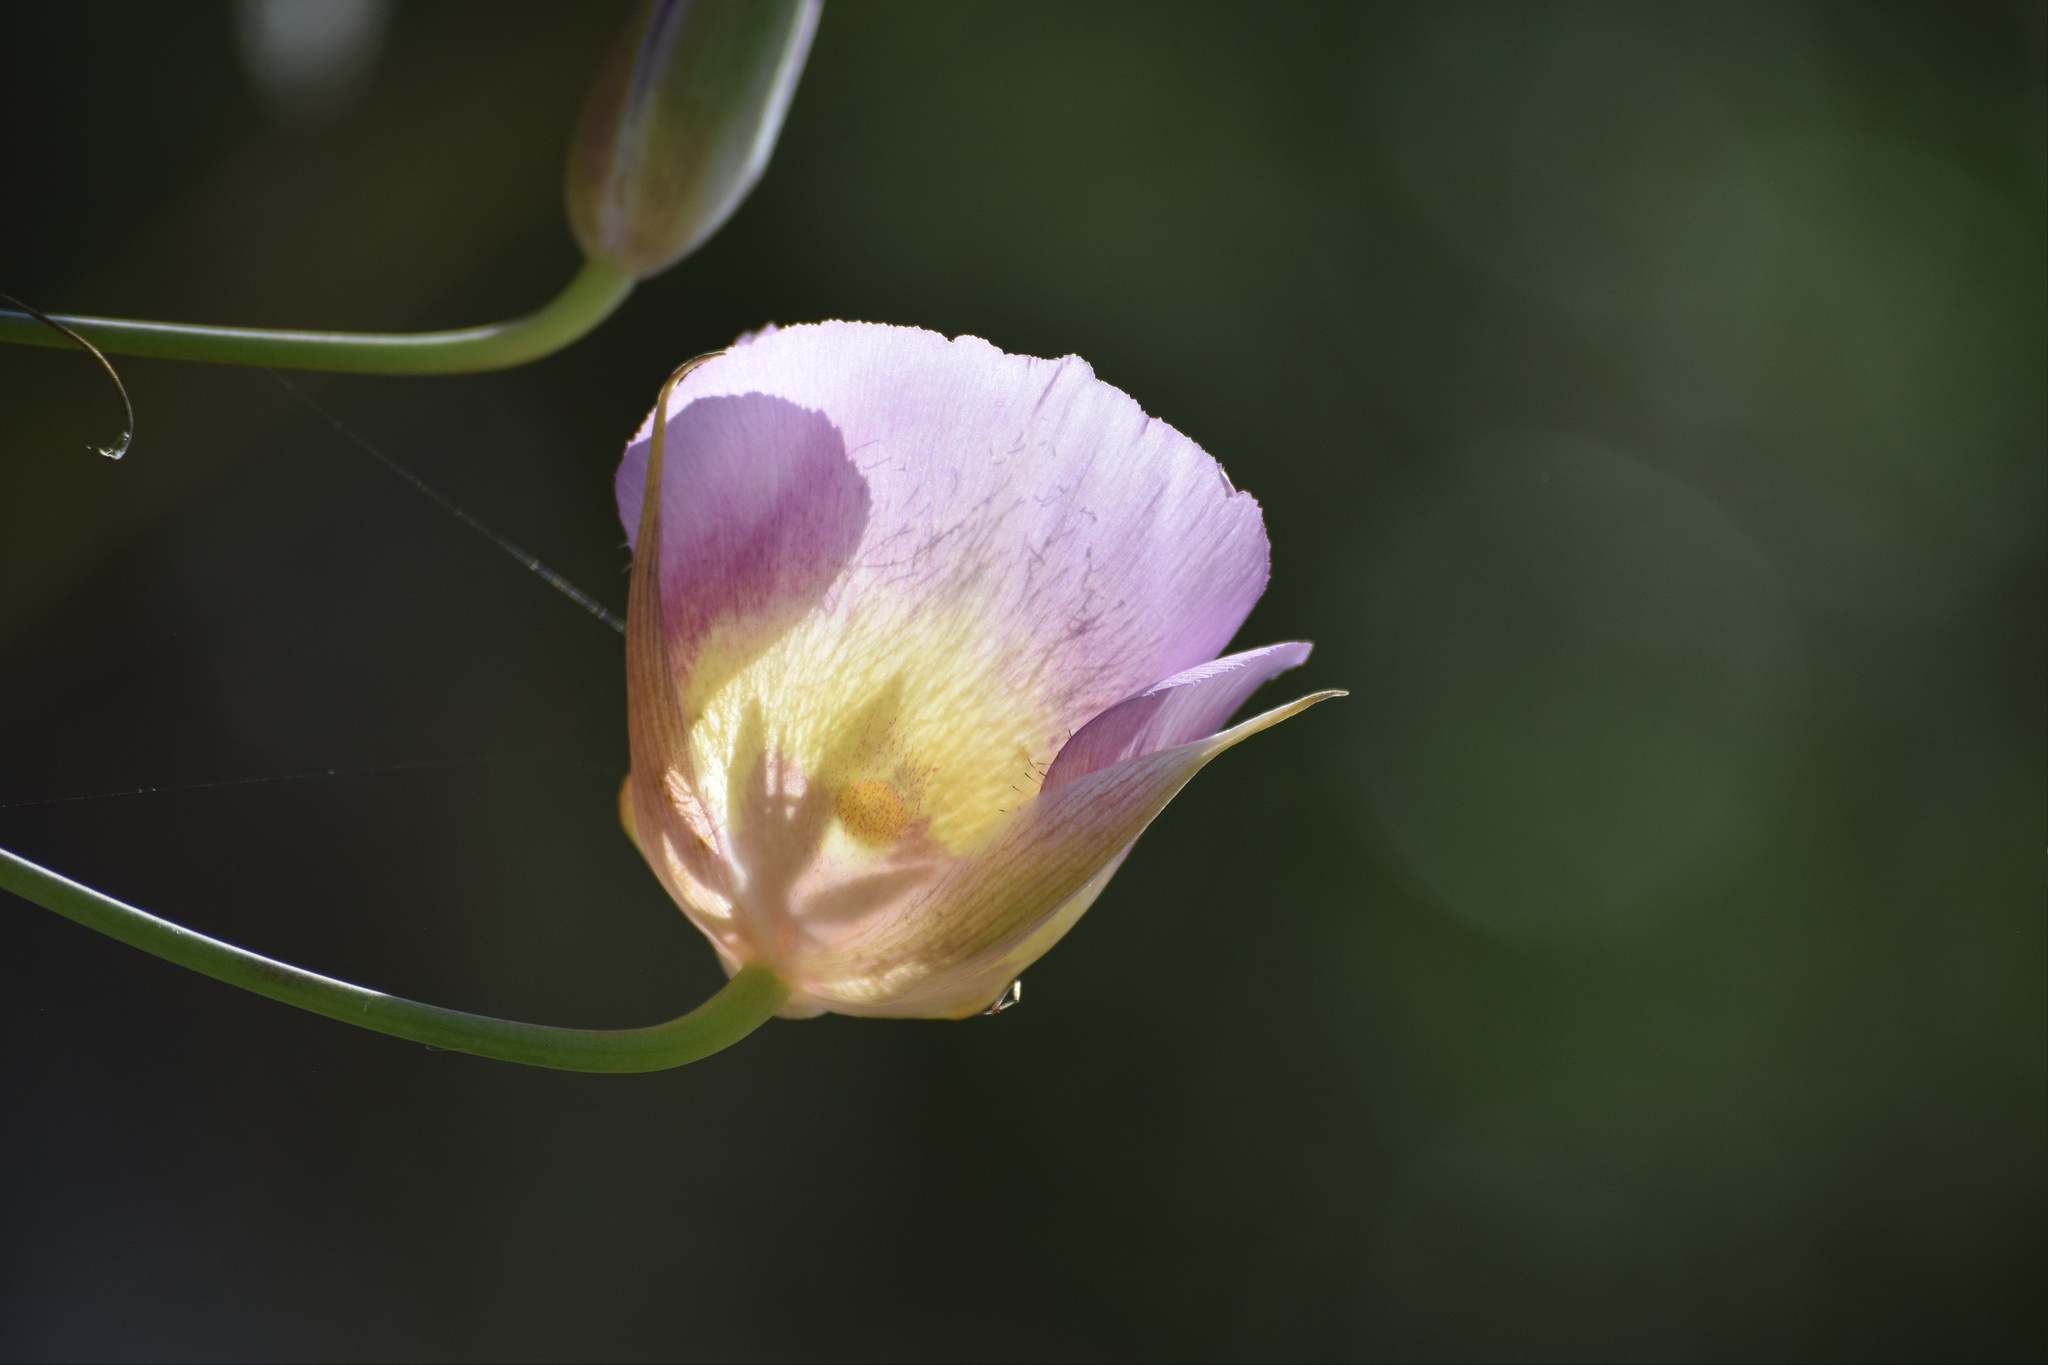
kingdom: Plantae
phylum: Tracheophyta
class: Liliopsida
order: Liliales
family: Liliaceae
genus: Calochortus
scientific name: Calochortus plummerae
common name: Plummer's mariposa-lily
